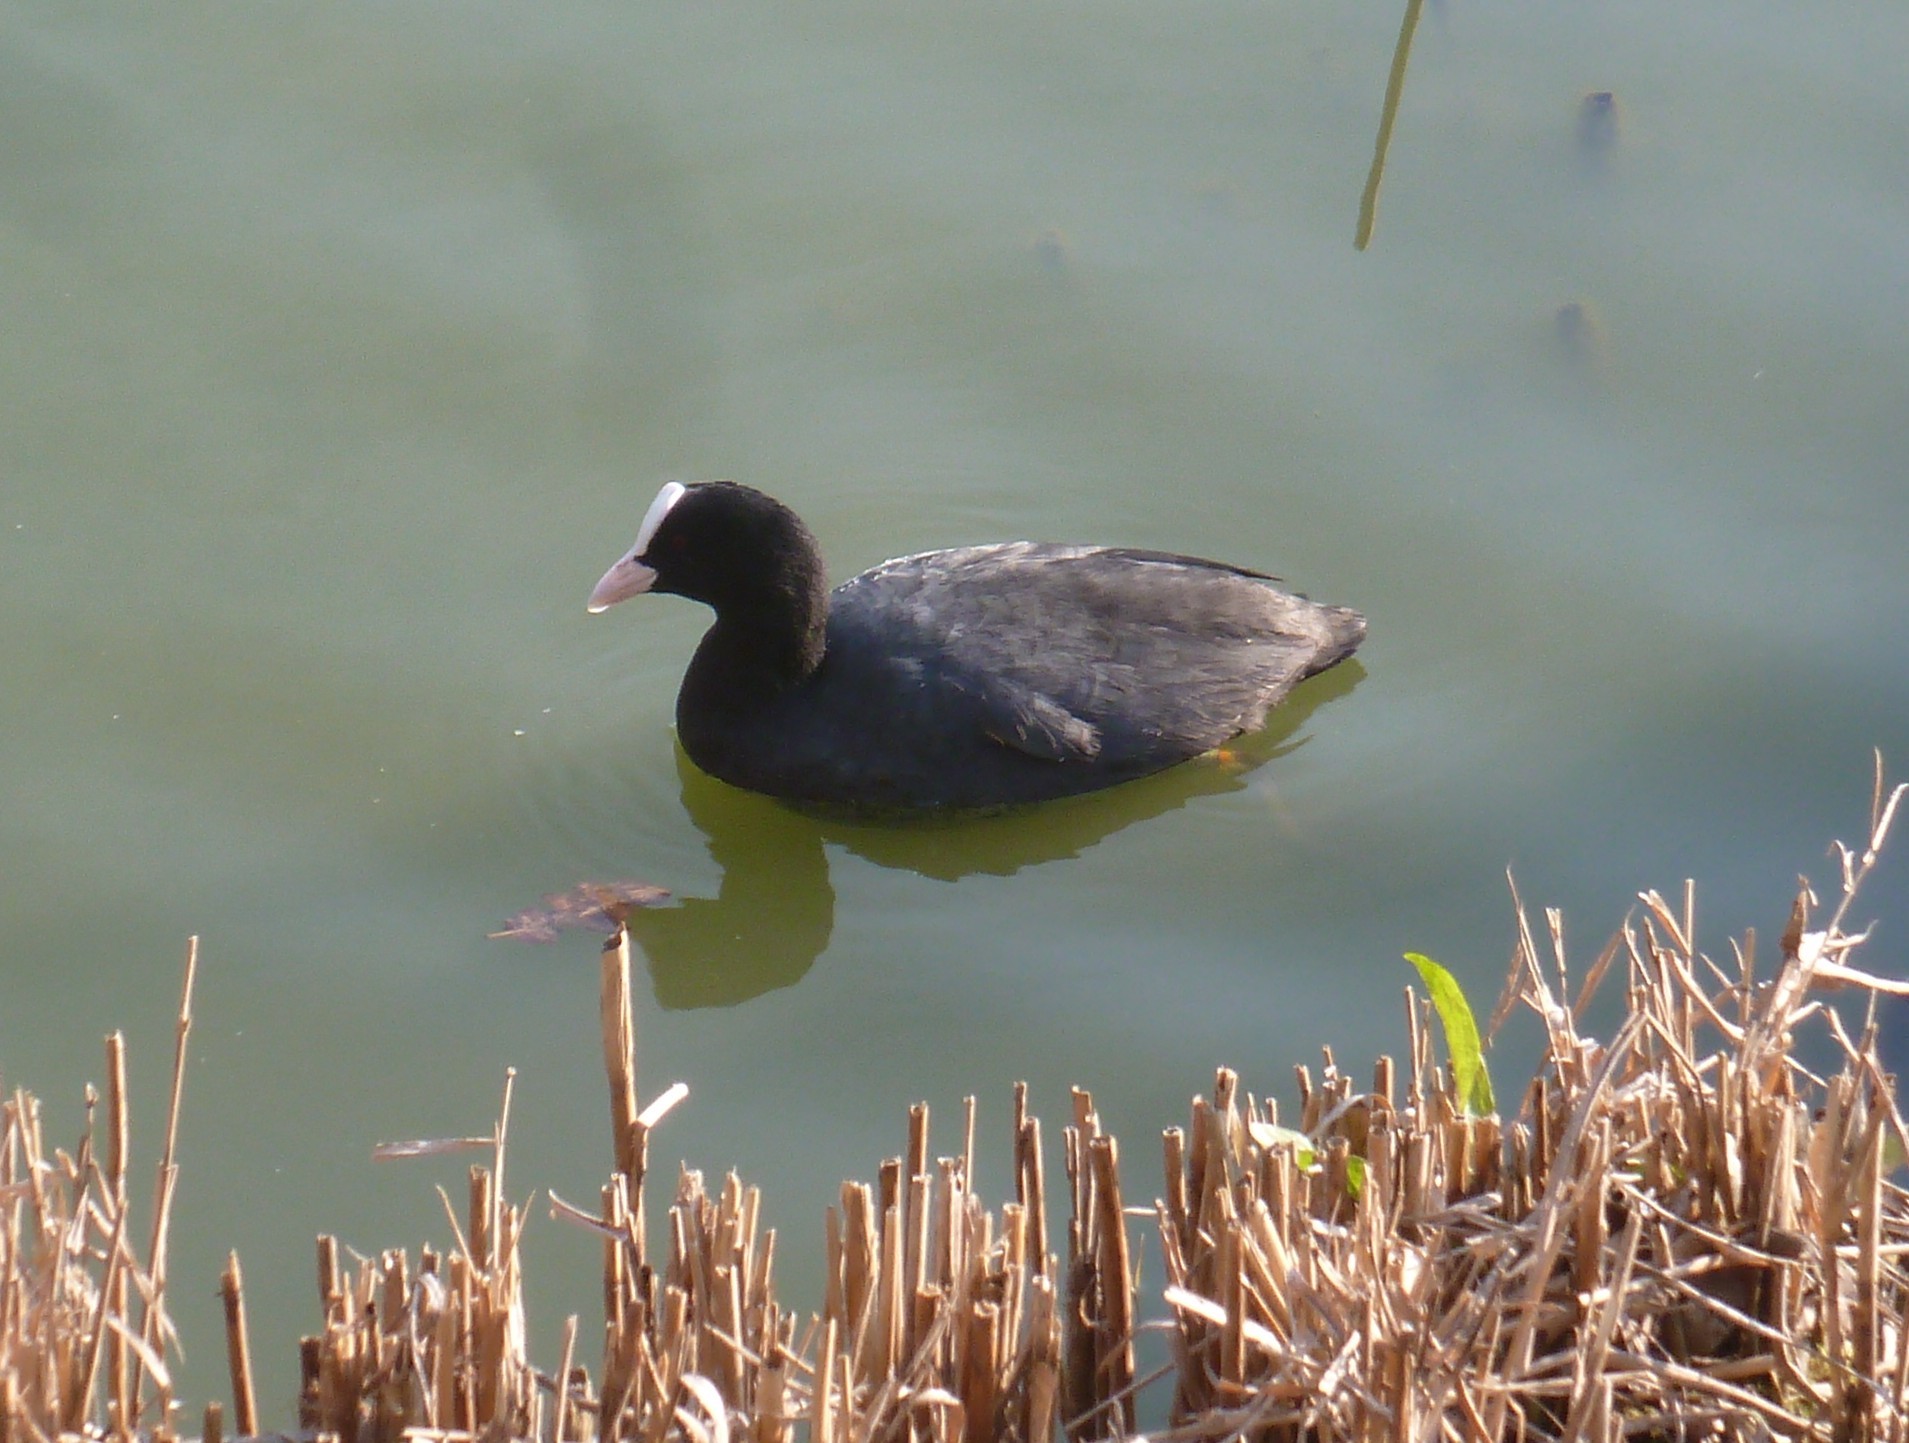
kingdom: Animalia
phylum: Chordata
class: Aves
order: Gruiformes
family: Rallidae
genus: Fulica
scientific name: Fulica atra
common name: Eurasian coot
